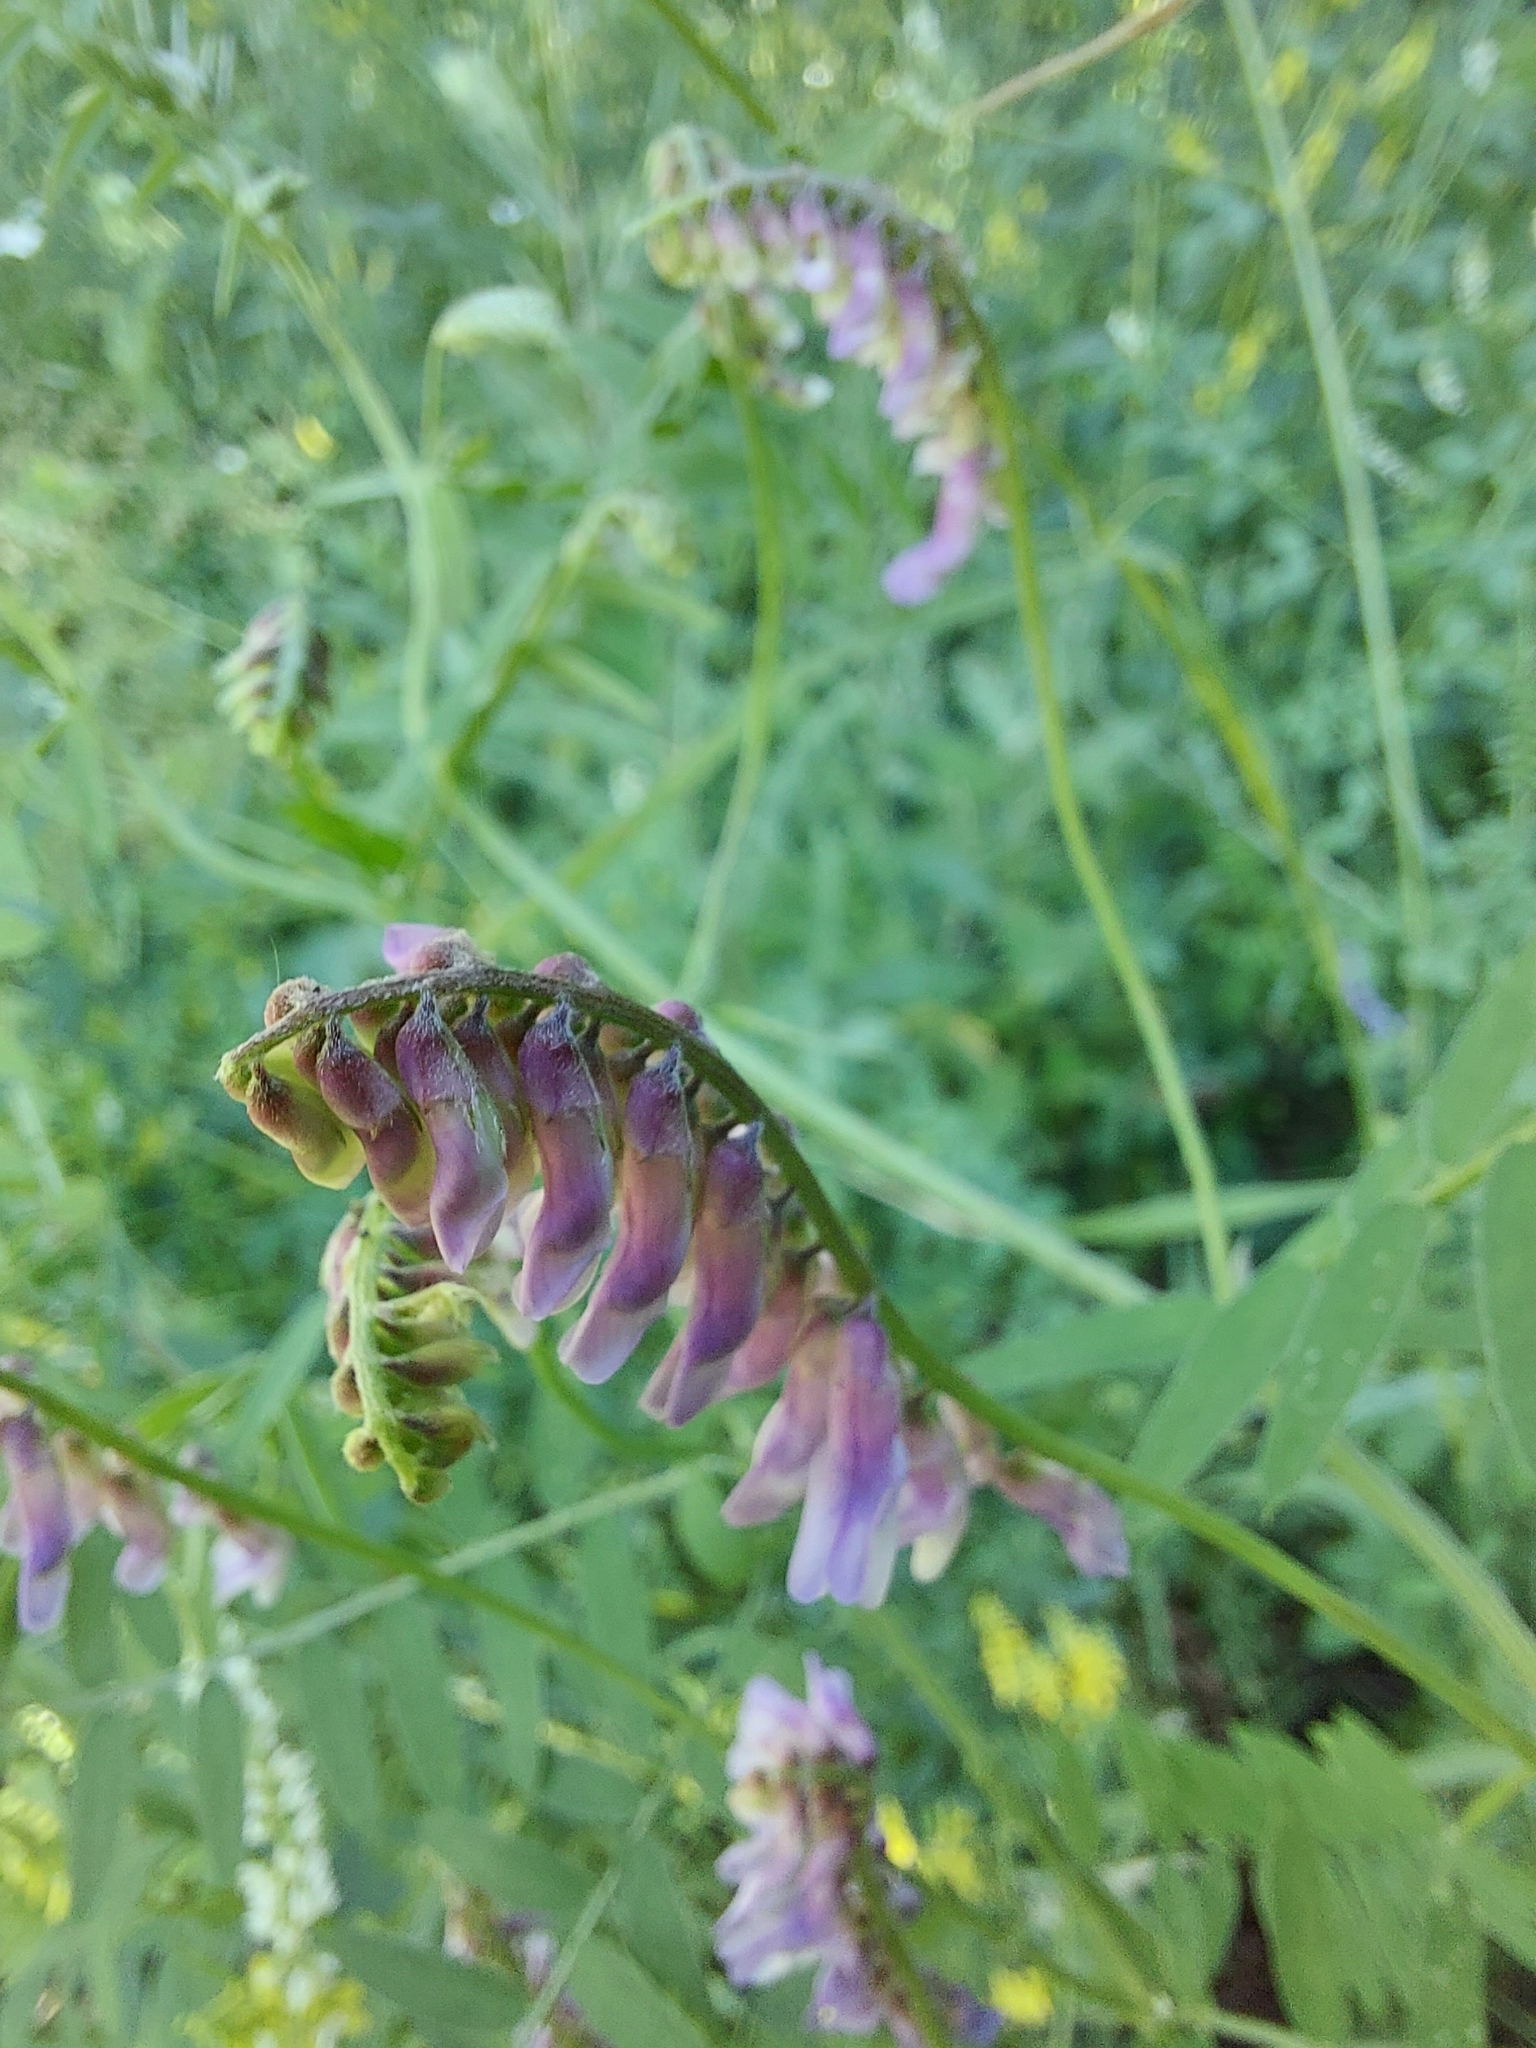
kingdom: Plantae
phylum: Tracheophyta
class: Magnoliopsida
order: Fabales
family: Fabaceae
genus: Vicia
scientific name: Vicia cracca
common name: Bird vetch
